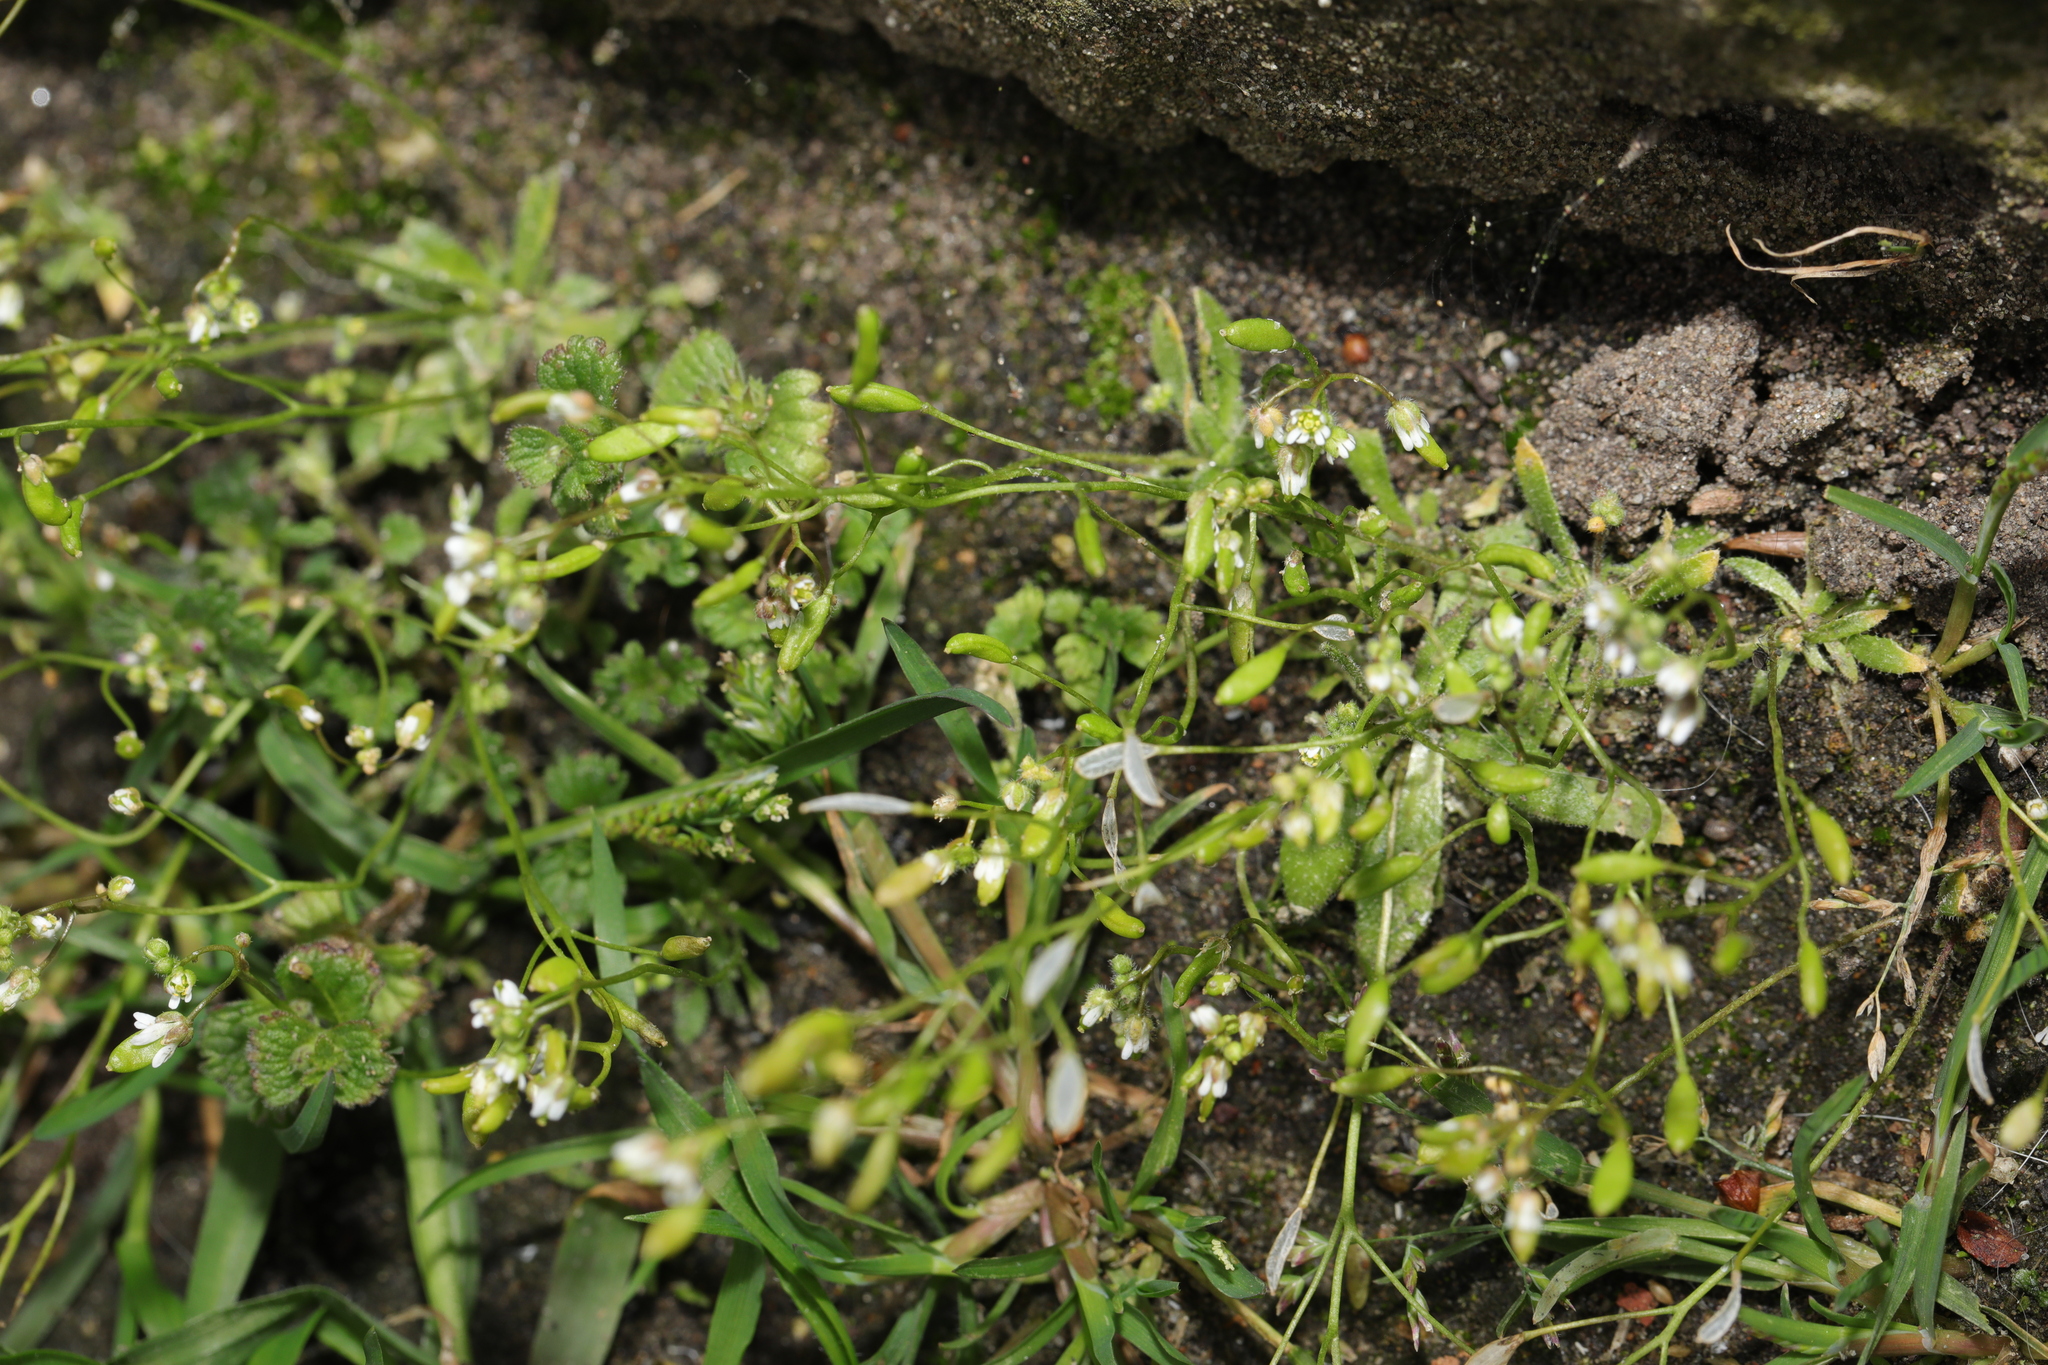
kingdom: Plantae
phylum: Tracheophyta
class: Magnoliopsida
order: Brassicales
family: Brassicaceae
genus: Draba
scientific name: Draba verna
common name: Spring draba
